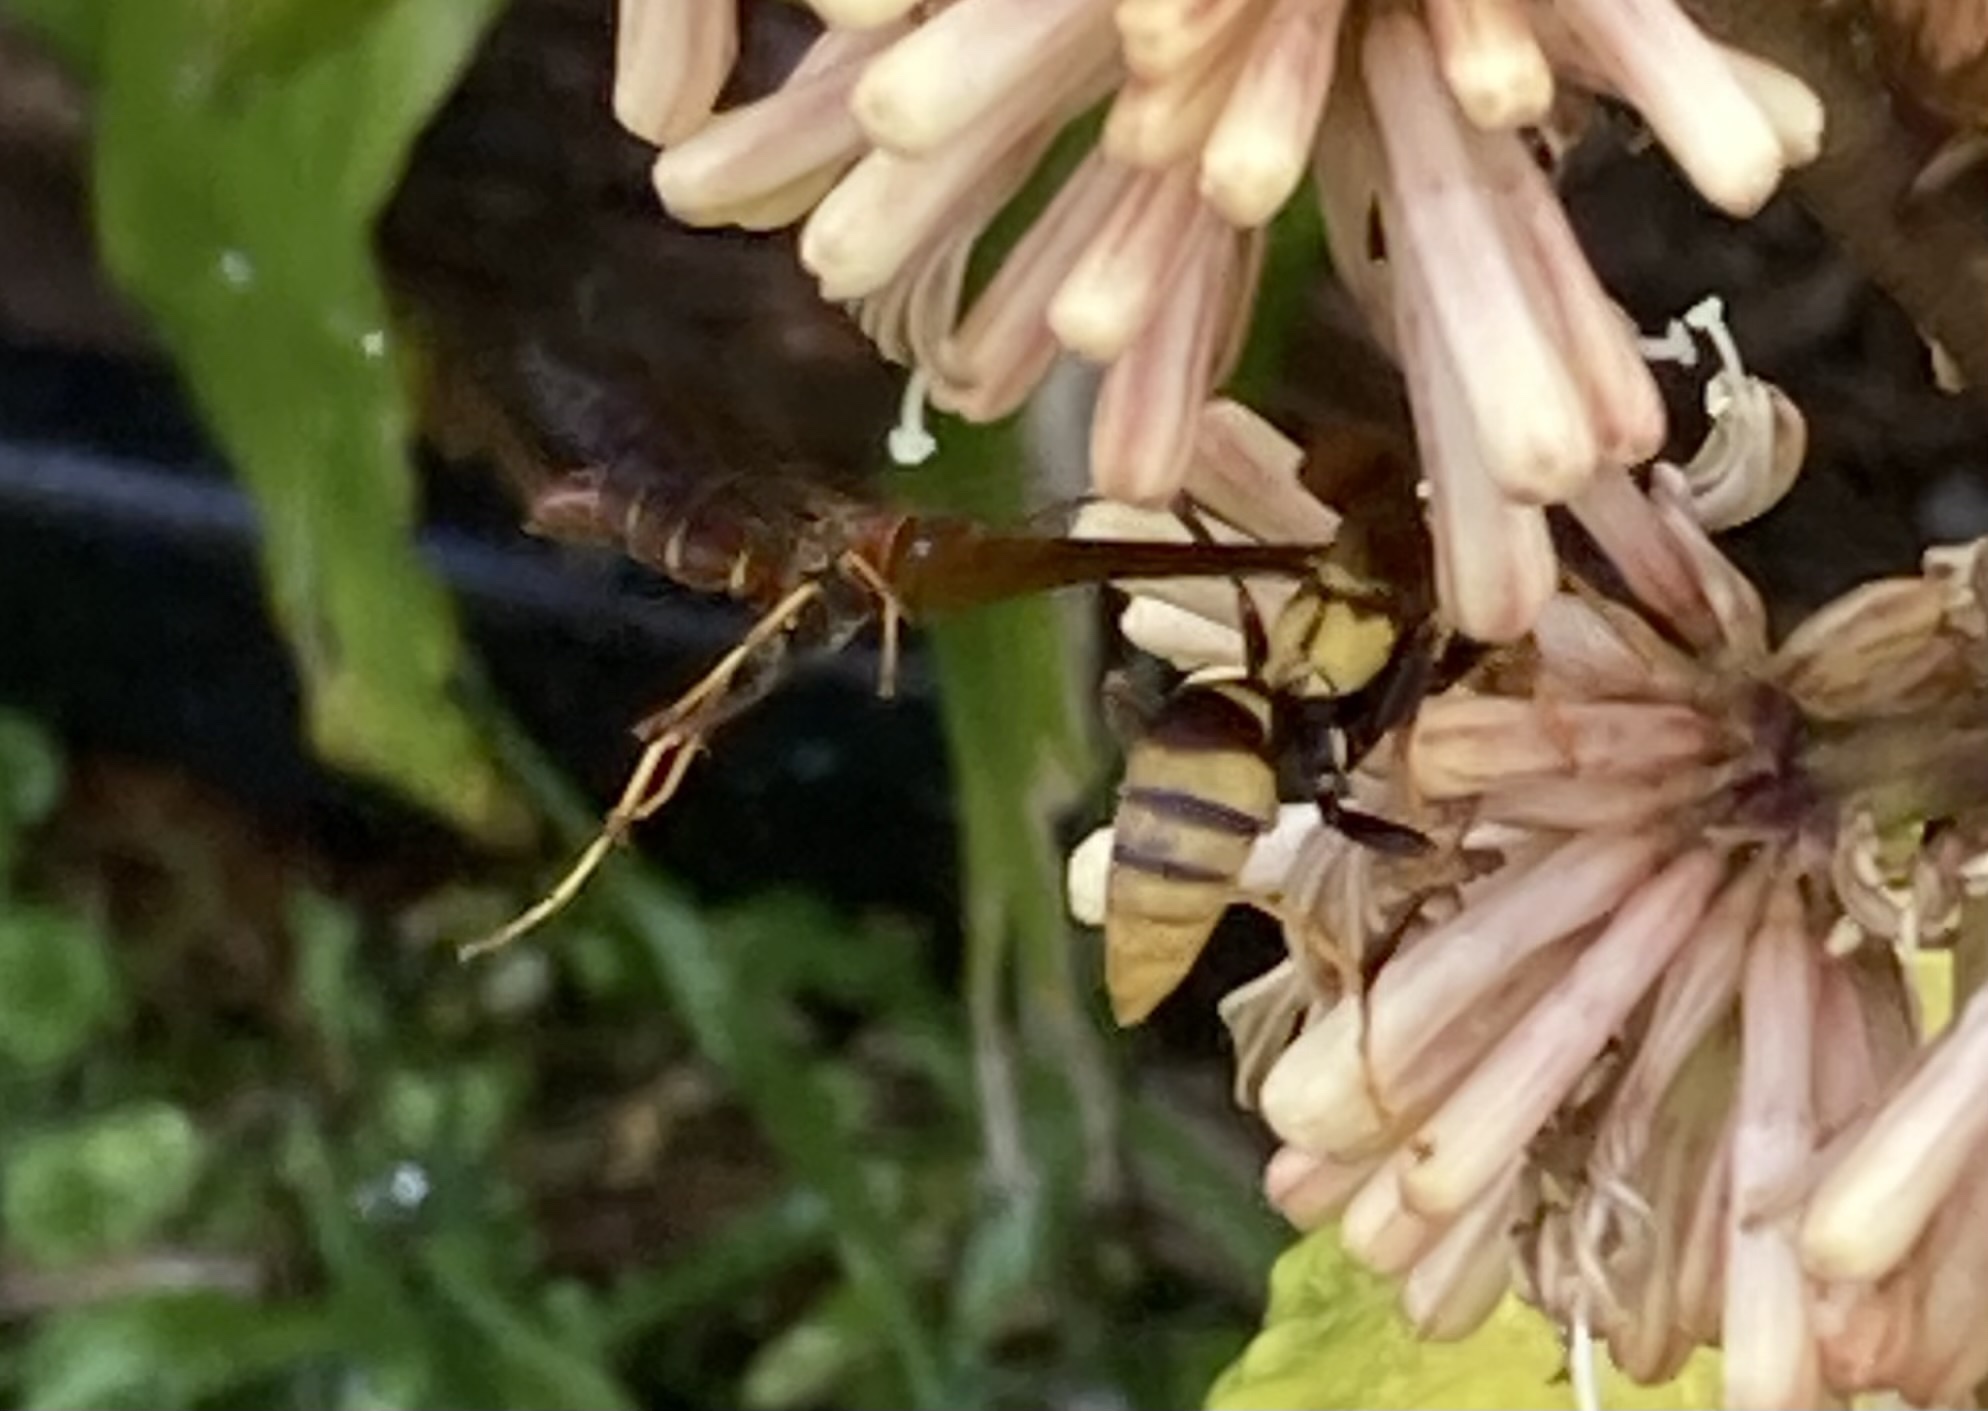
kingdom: Animalia
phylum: Arthropoda
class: Insecta
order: Hymenoptera
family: Eumenidae
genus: Polistes
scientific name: Polistes dorsalis
